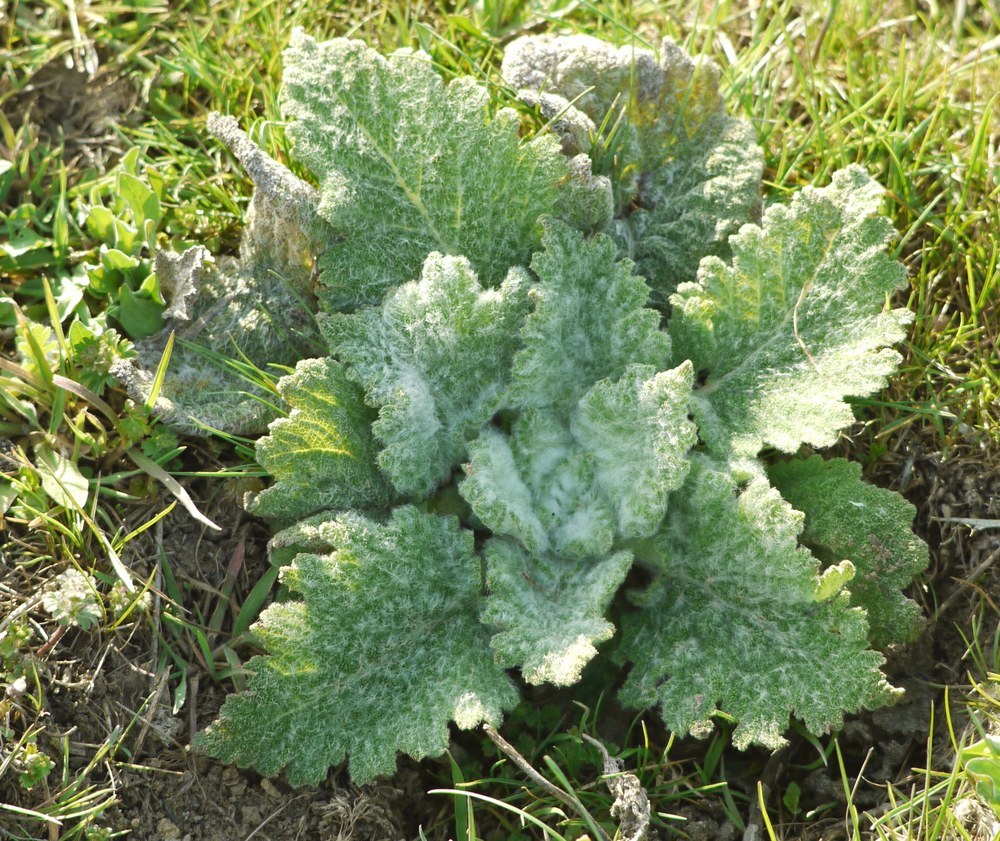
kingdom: Plantae
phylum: Tracheophyta
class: Magnoliopsida
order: Lamiales
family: Lamiaceae
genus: Salvia
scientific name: Salvia aethiopis
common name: Mediterranean sage
